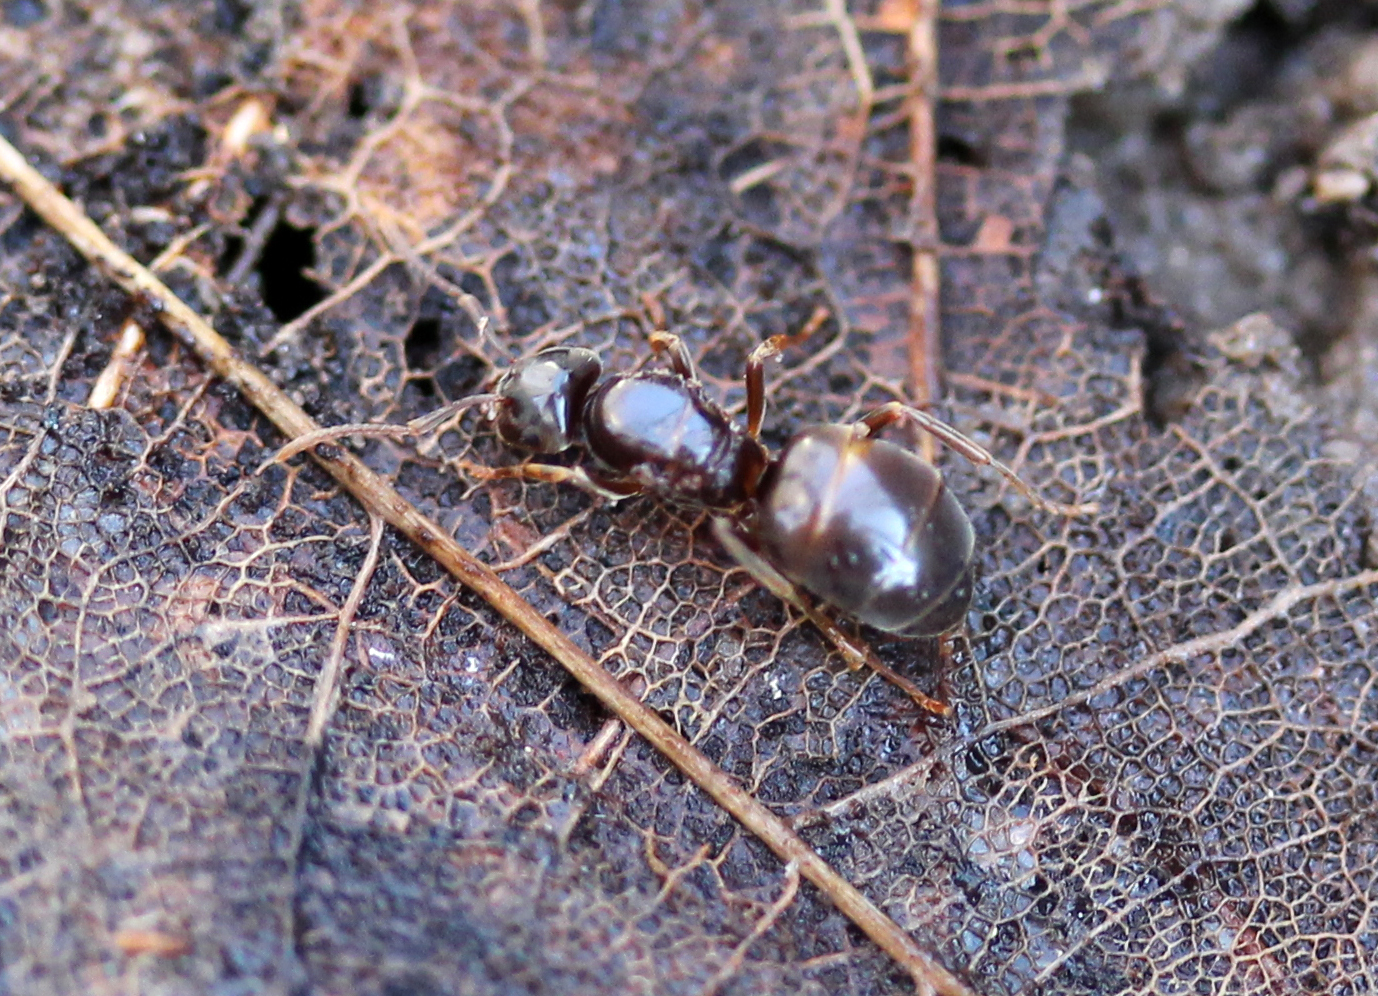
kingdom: Animalia
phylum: Arthropoda
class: Insecta
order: Hymenoptera
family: Formicidae
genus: Lasius
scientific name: Lasius aphidicola
